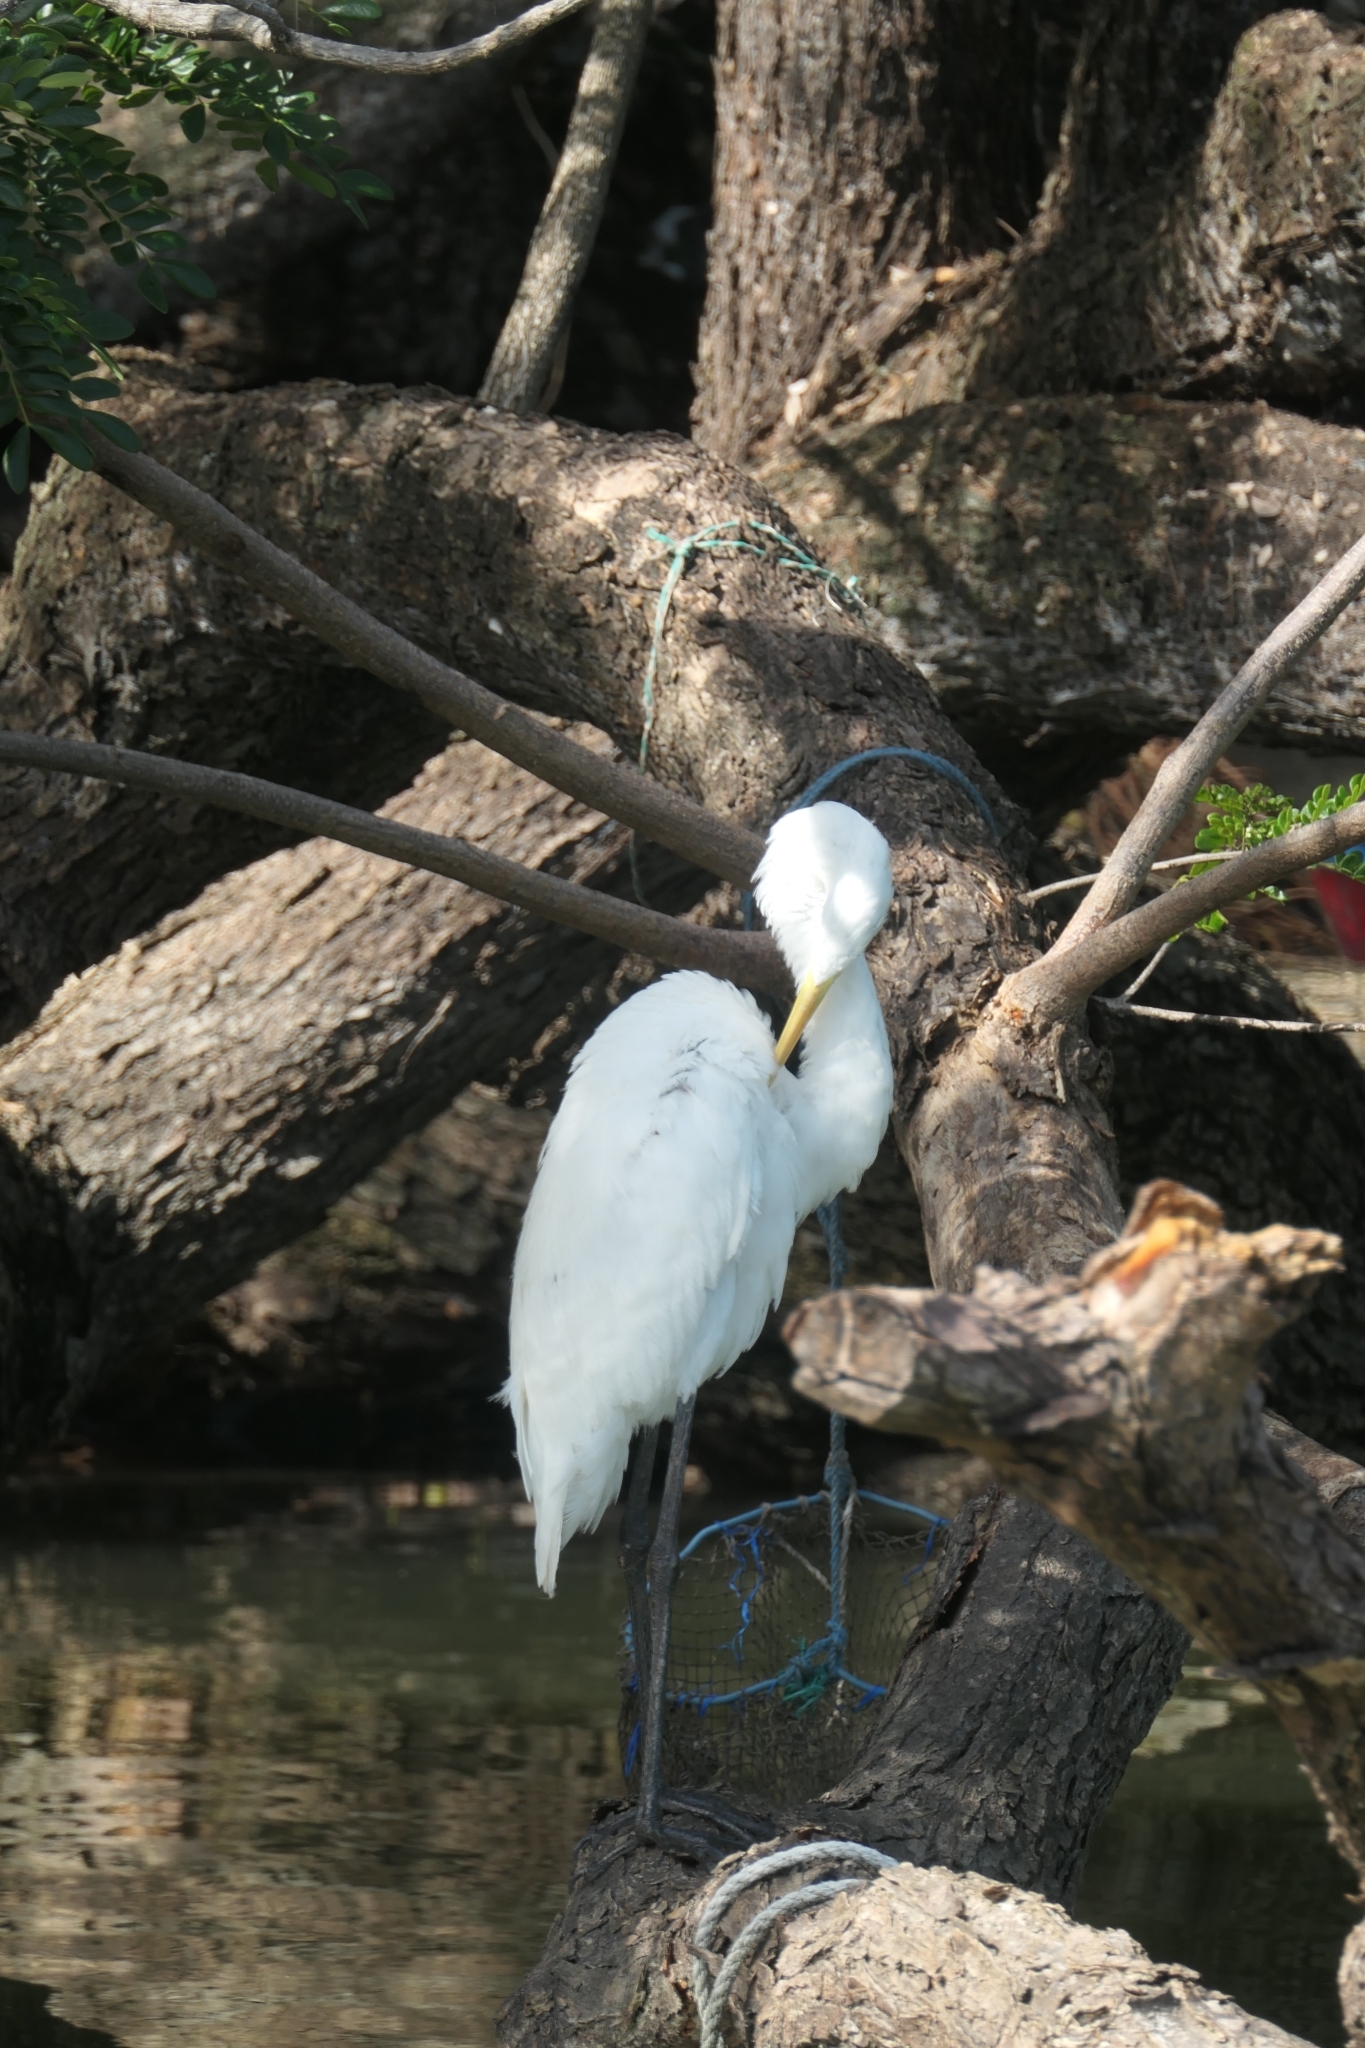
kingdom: Animalia
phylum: Chordata
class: Aves
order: Pelecaniformes
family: Ardeidae
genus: Ardea
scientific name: Ardea alba
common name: Great egret
